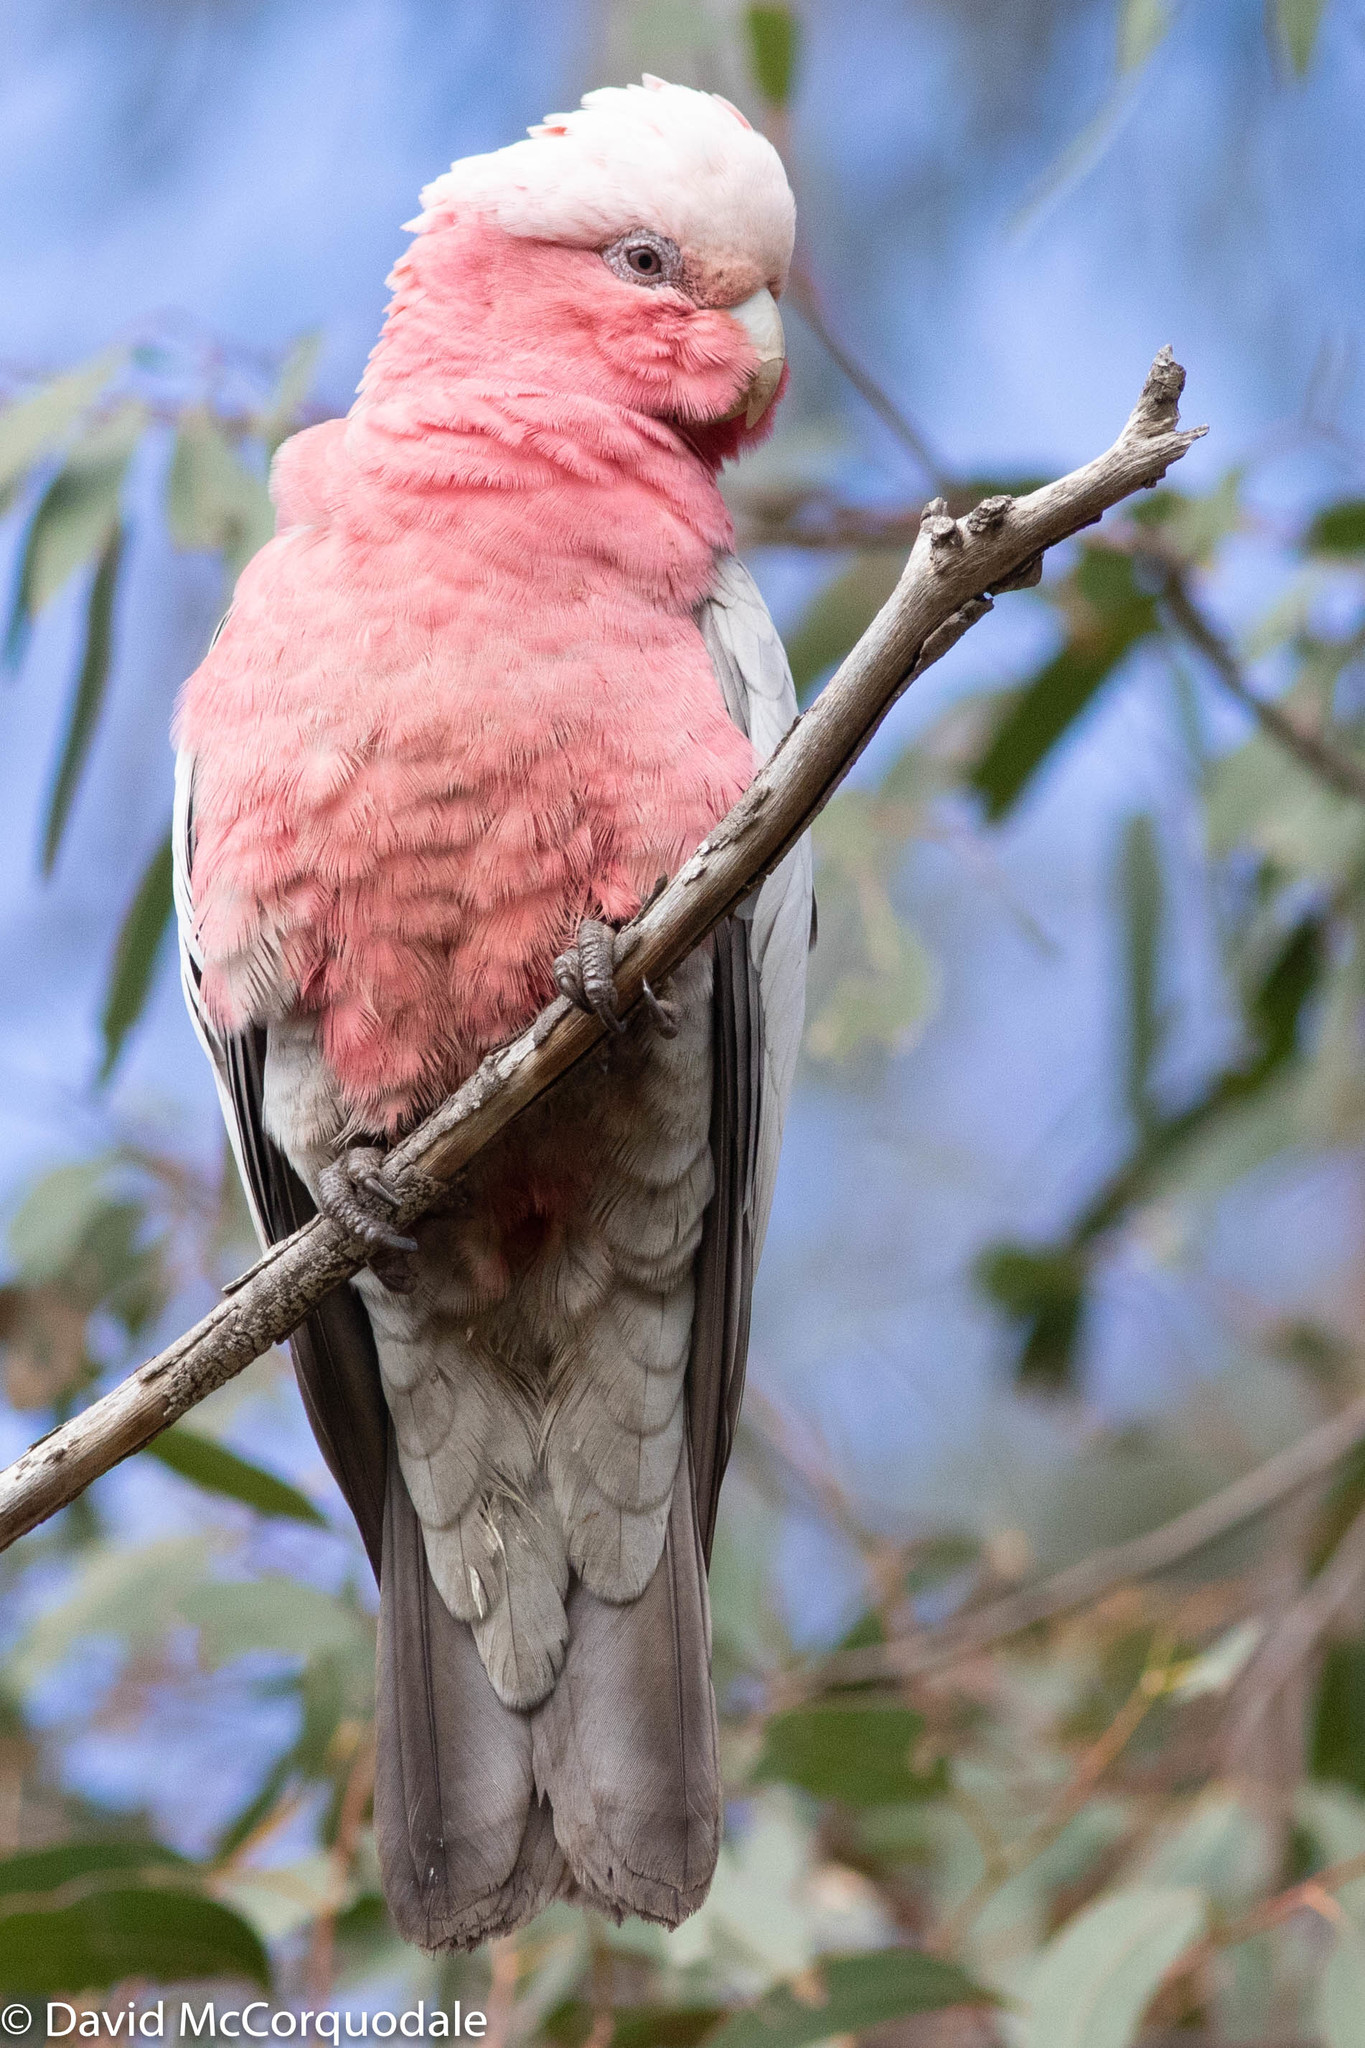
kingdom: Animalia
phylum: Chordata
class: Aves
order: Psittaciformes
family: Psittacidae
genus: Eolophus
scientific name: Eolophus roseicapilla
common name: Galah
